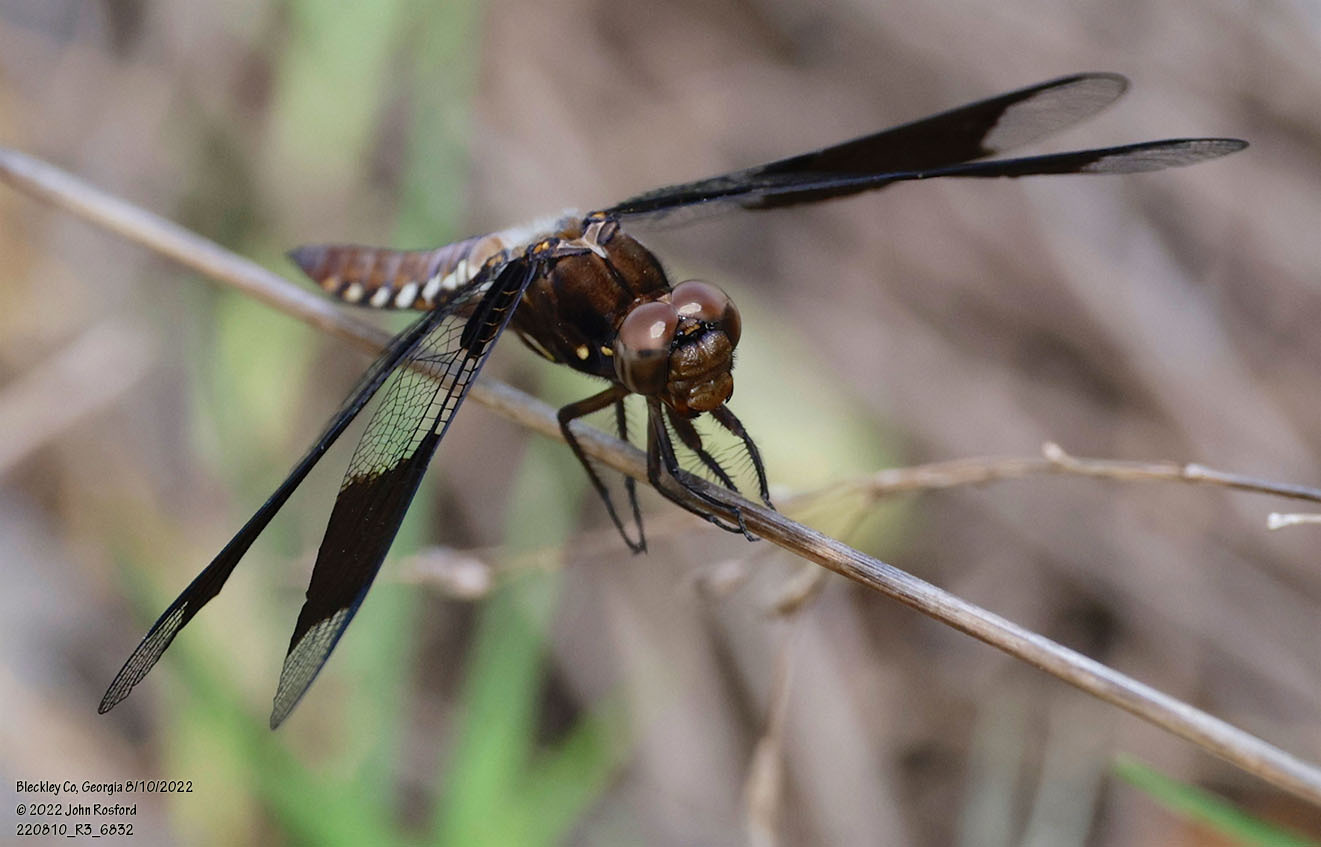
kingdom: Animalia
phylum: Arthropoda
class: Insecta
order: Odonata
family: Libellulidae
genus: Plathemis
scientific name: Plathemis lydia
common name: Common whitetail
